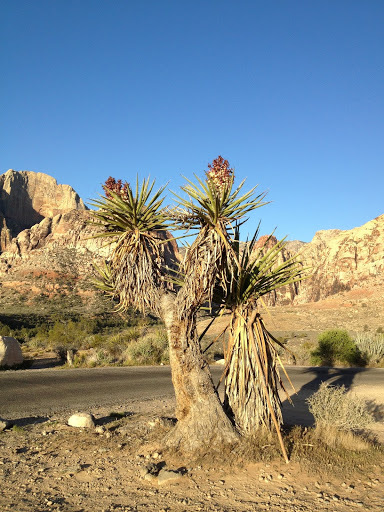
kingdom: Plantae
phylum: Tracheophyta
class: Liliopsida
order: Asparagales
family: Asparagaceae
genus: Yucca
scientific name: Yucca schidigera
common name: Mojave yucca
